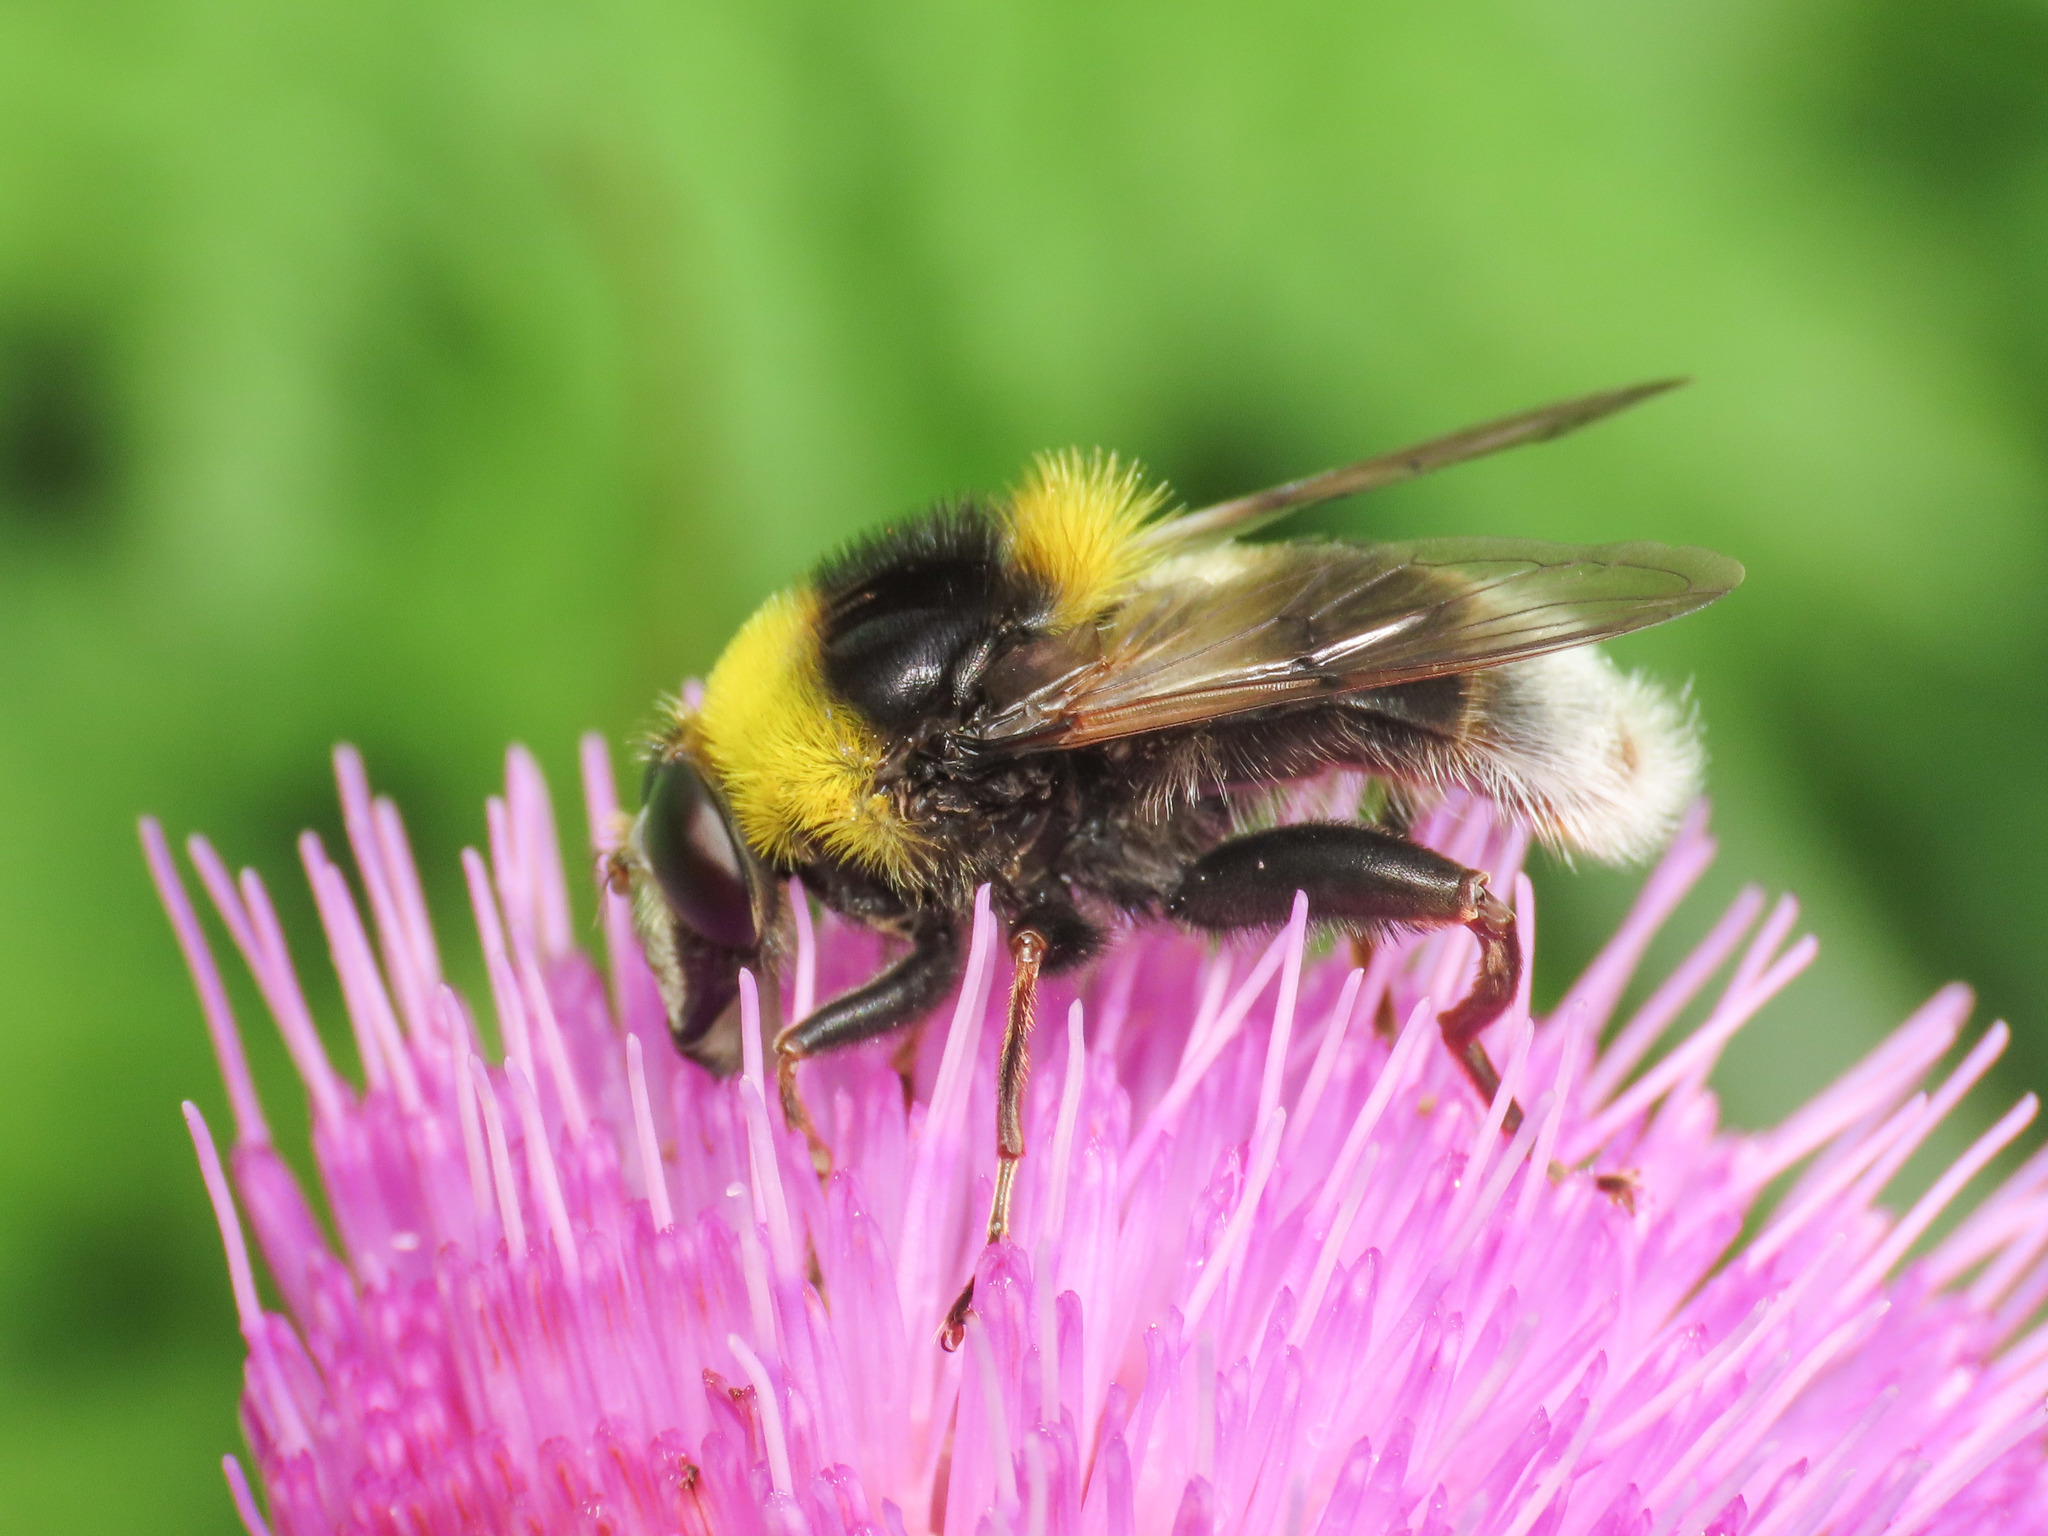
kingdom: Animalia
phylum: Arthropoda
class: Insecta
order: Diptera
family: Syrphidae
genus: Sericomyia
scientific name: Sericomyia bombiformis
